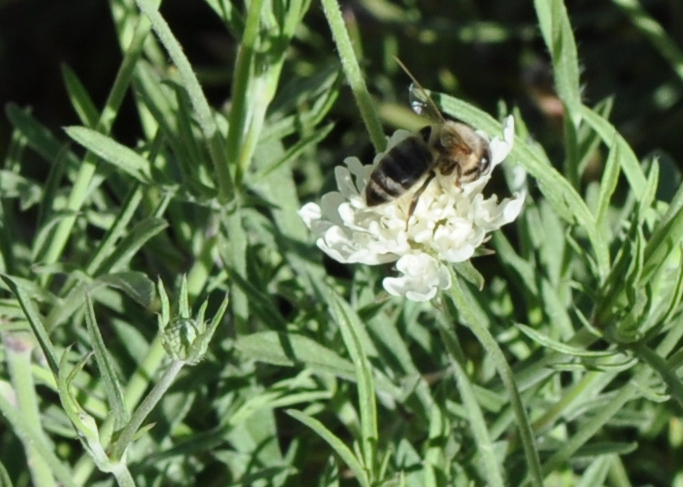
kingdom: Animalia
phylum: Arthropoda
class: Insecta
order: Hymenoptera
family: Apidae
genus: Apis
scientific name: Apis mellifera
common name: Honey bee
